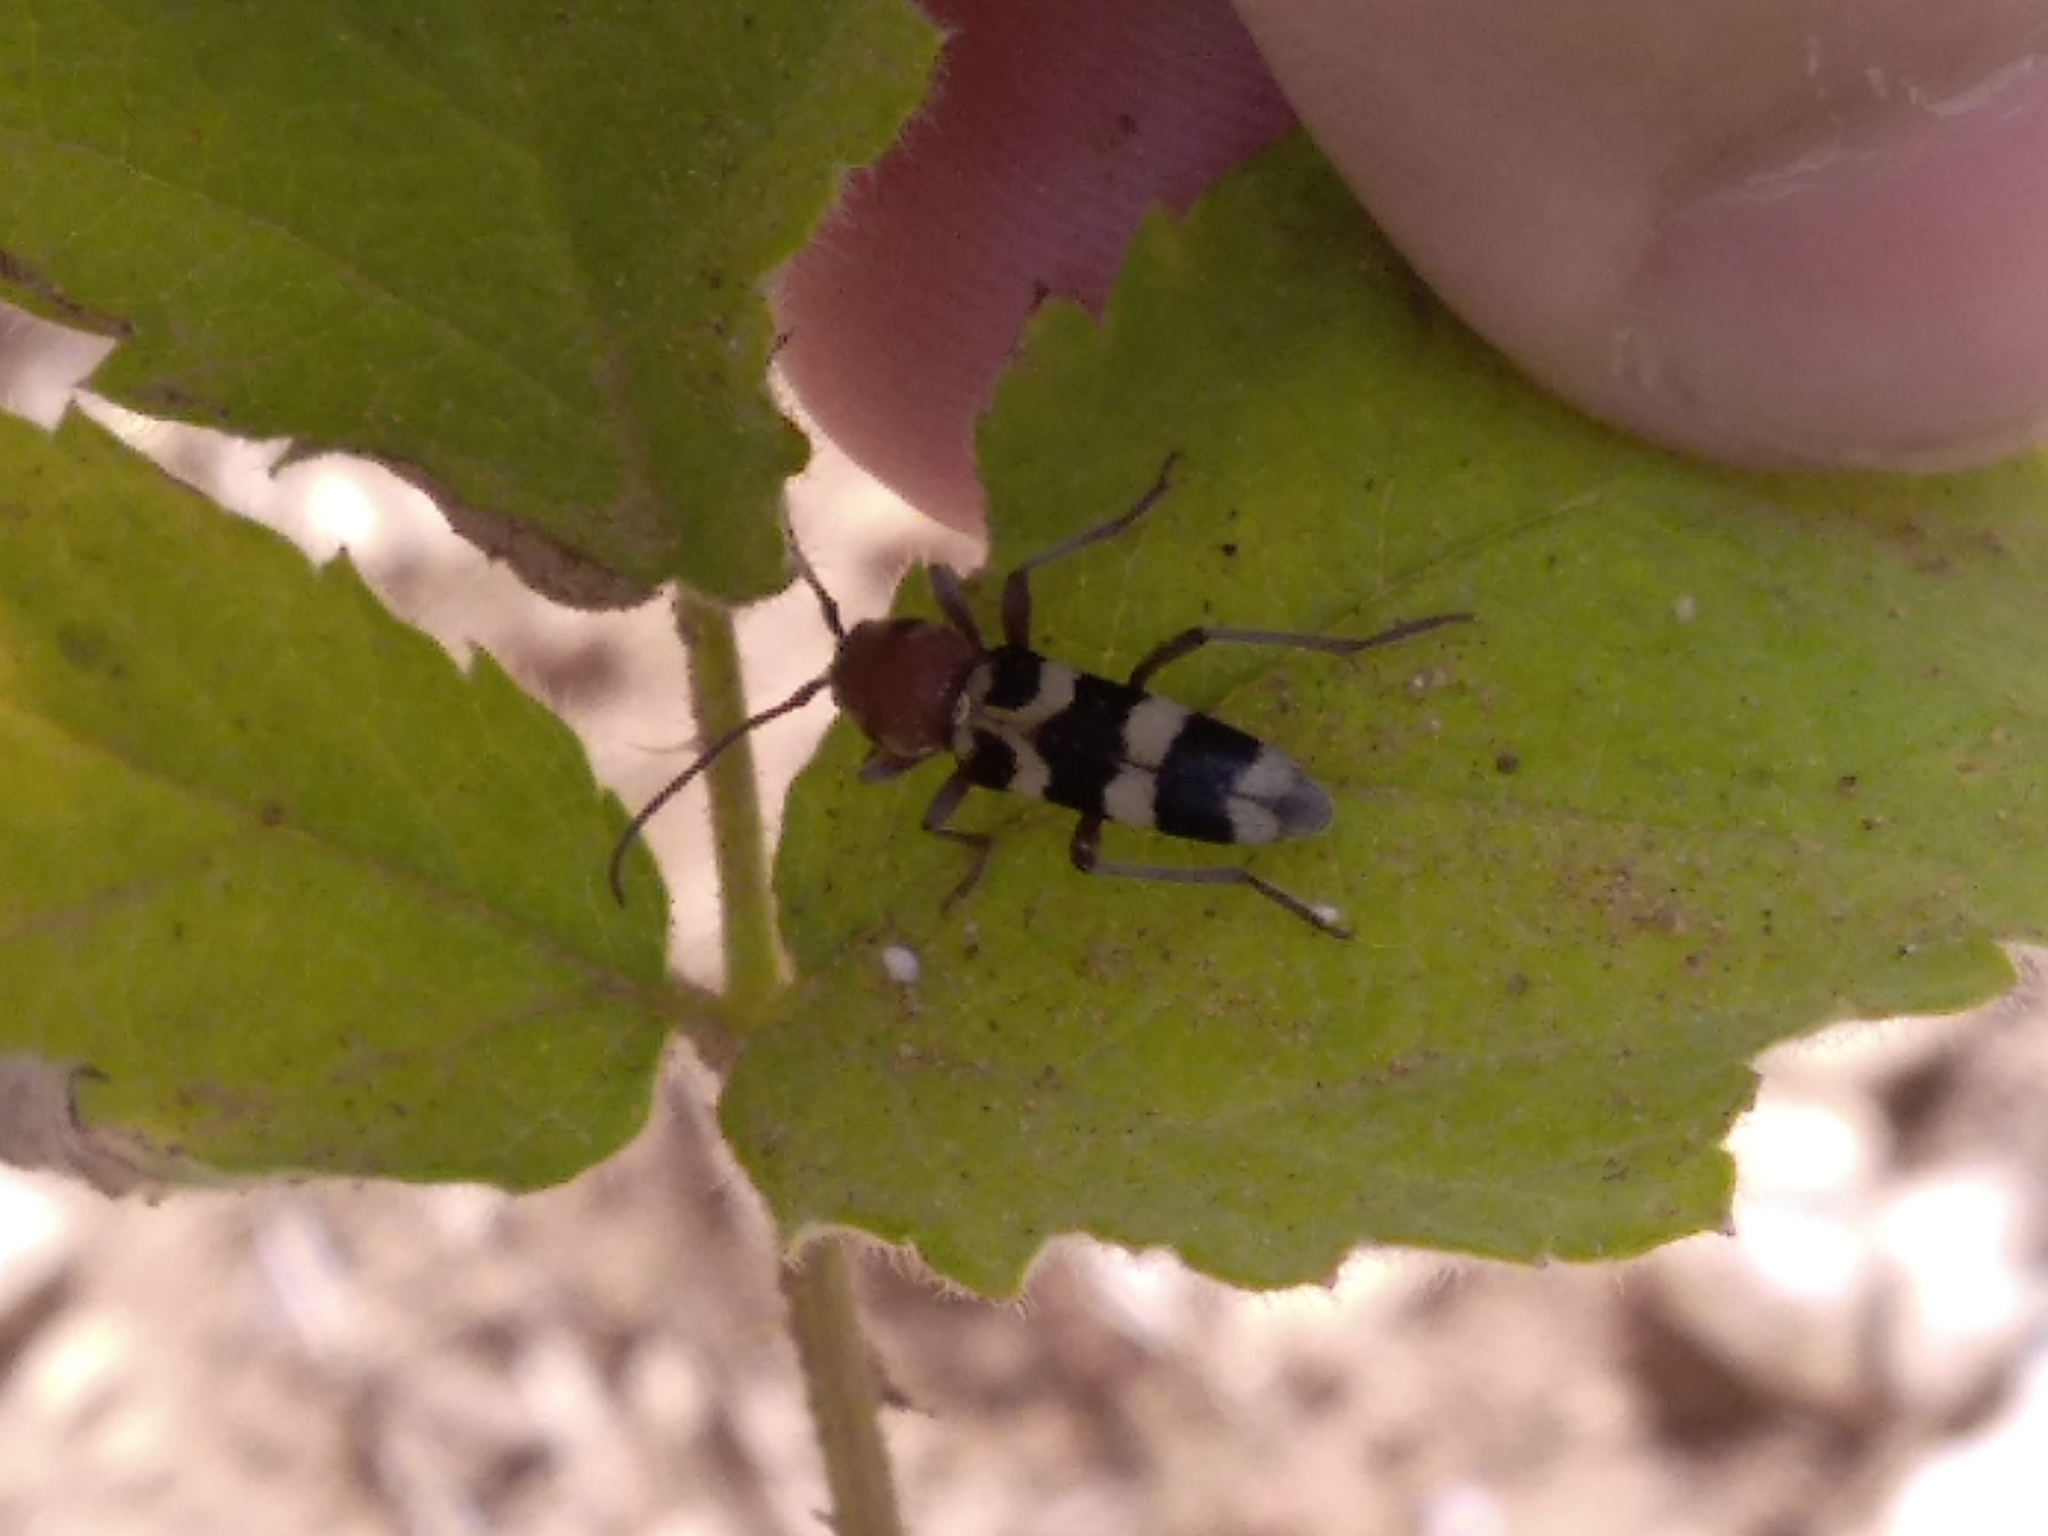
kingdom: Animalia
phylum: Arthropoda
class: Insecta
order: Coleoptera
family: Cerambycidae
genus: Chlorophorus
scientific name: Chlorophorus trifasciatus
